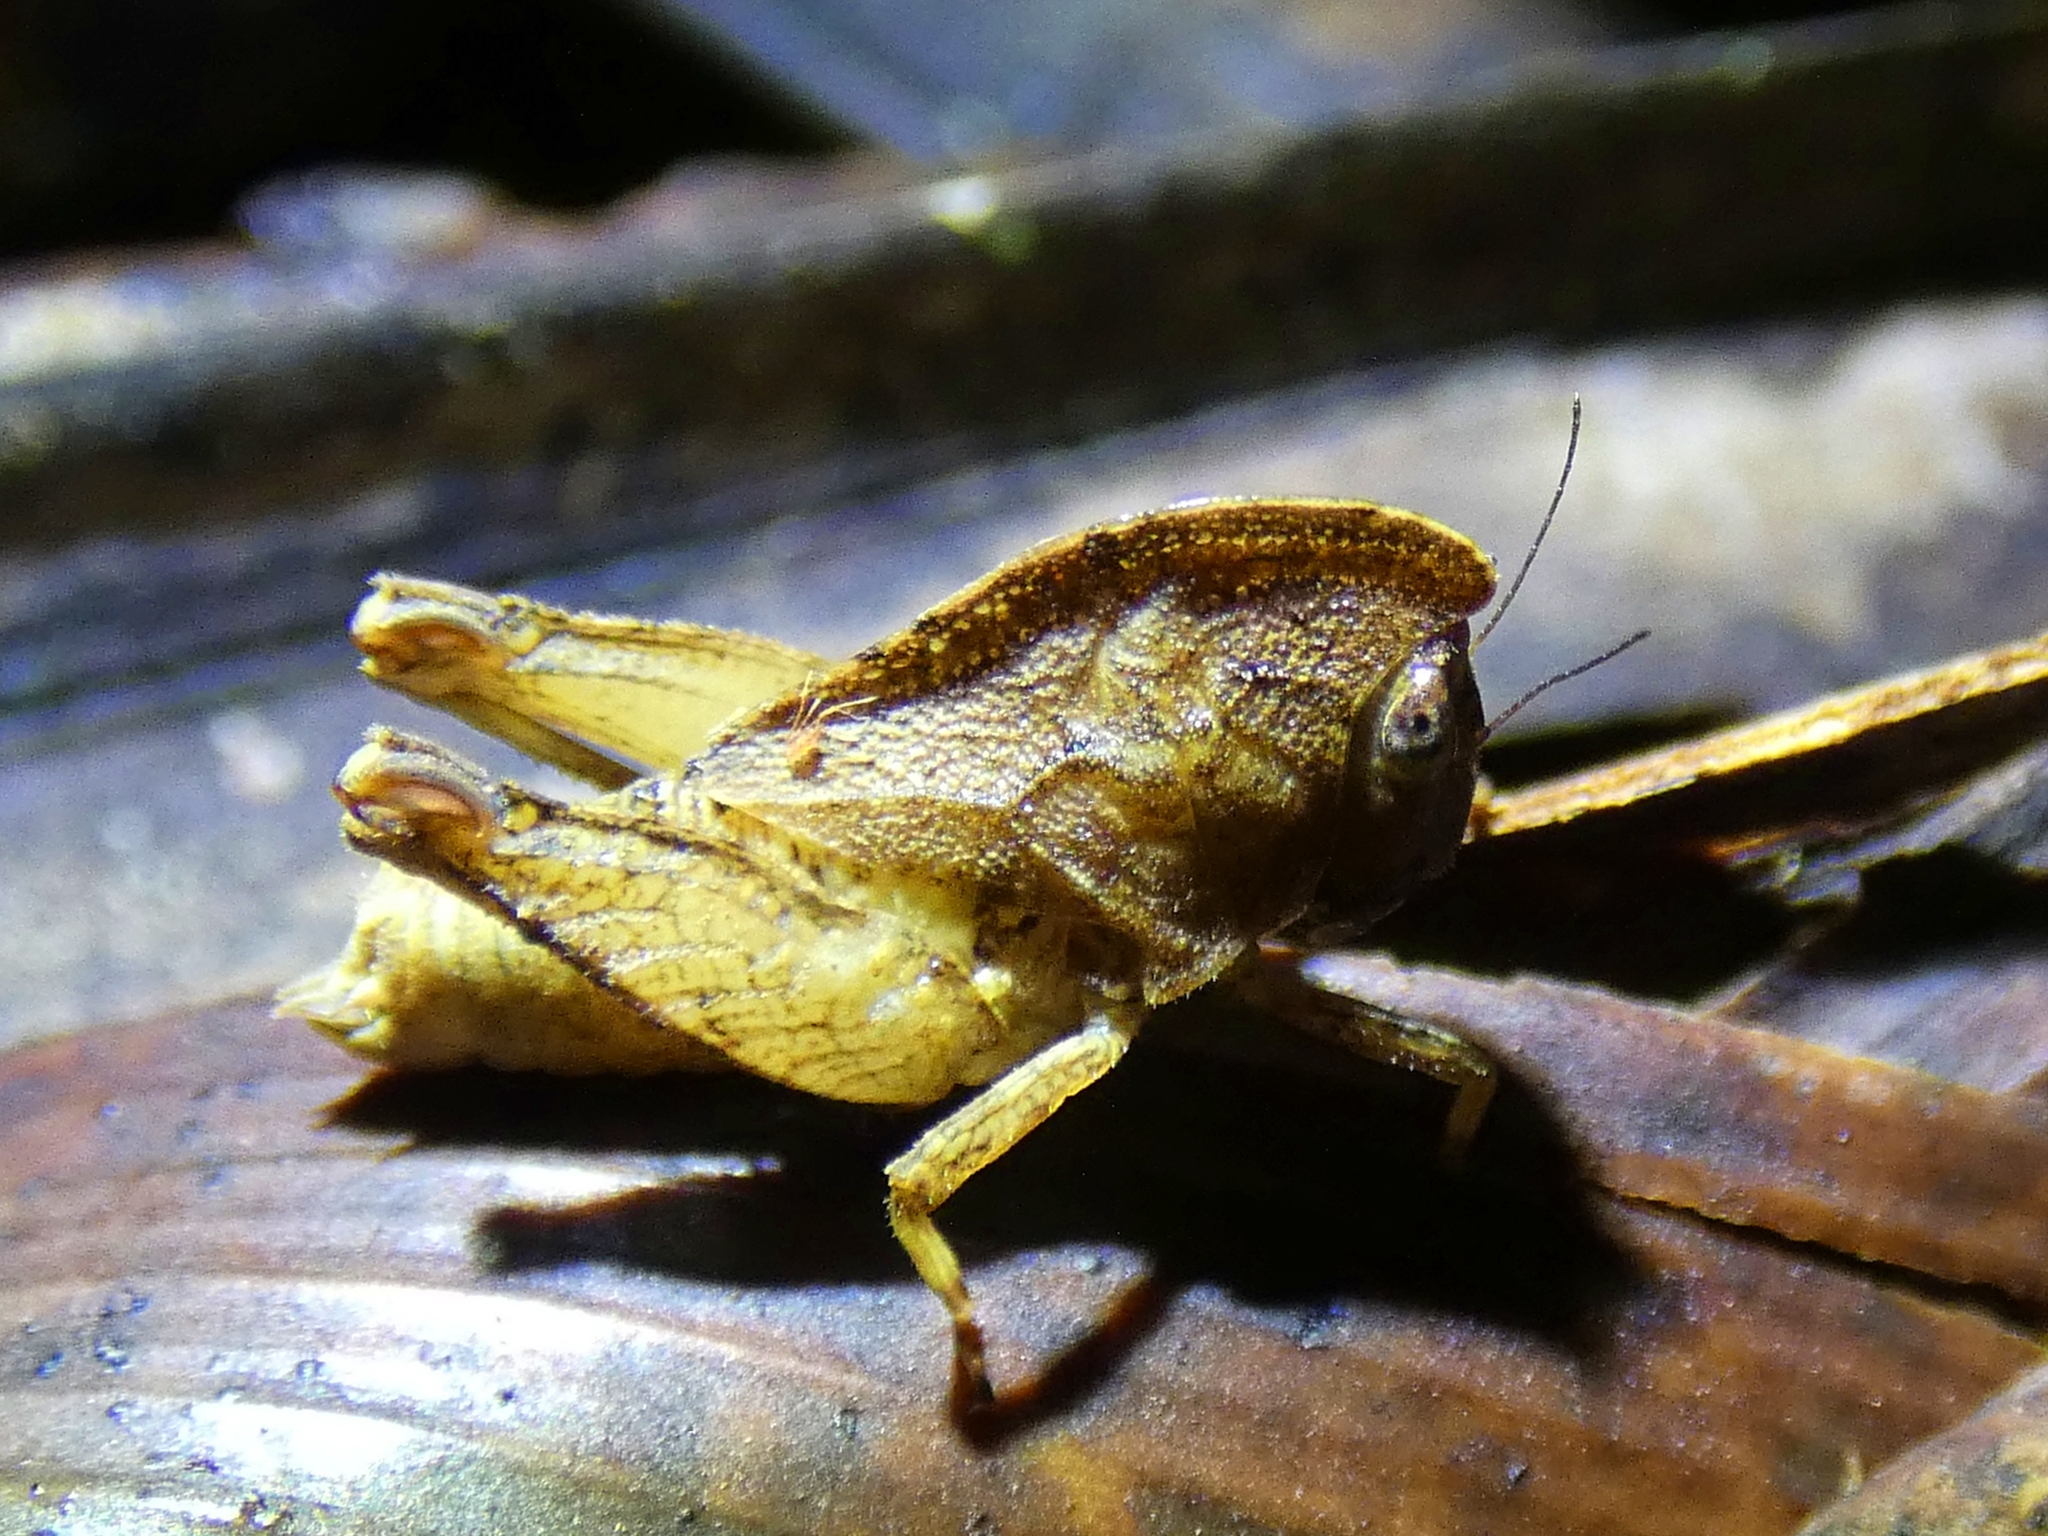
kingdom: Animalia
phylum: Arthropoda
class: Insecta
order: Orthoptera
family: Tetrigidae
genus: Selivinga
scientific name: Selivinga tribulata
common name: Tribulation helmed groundhopper
